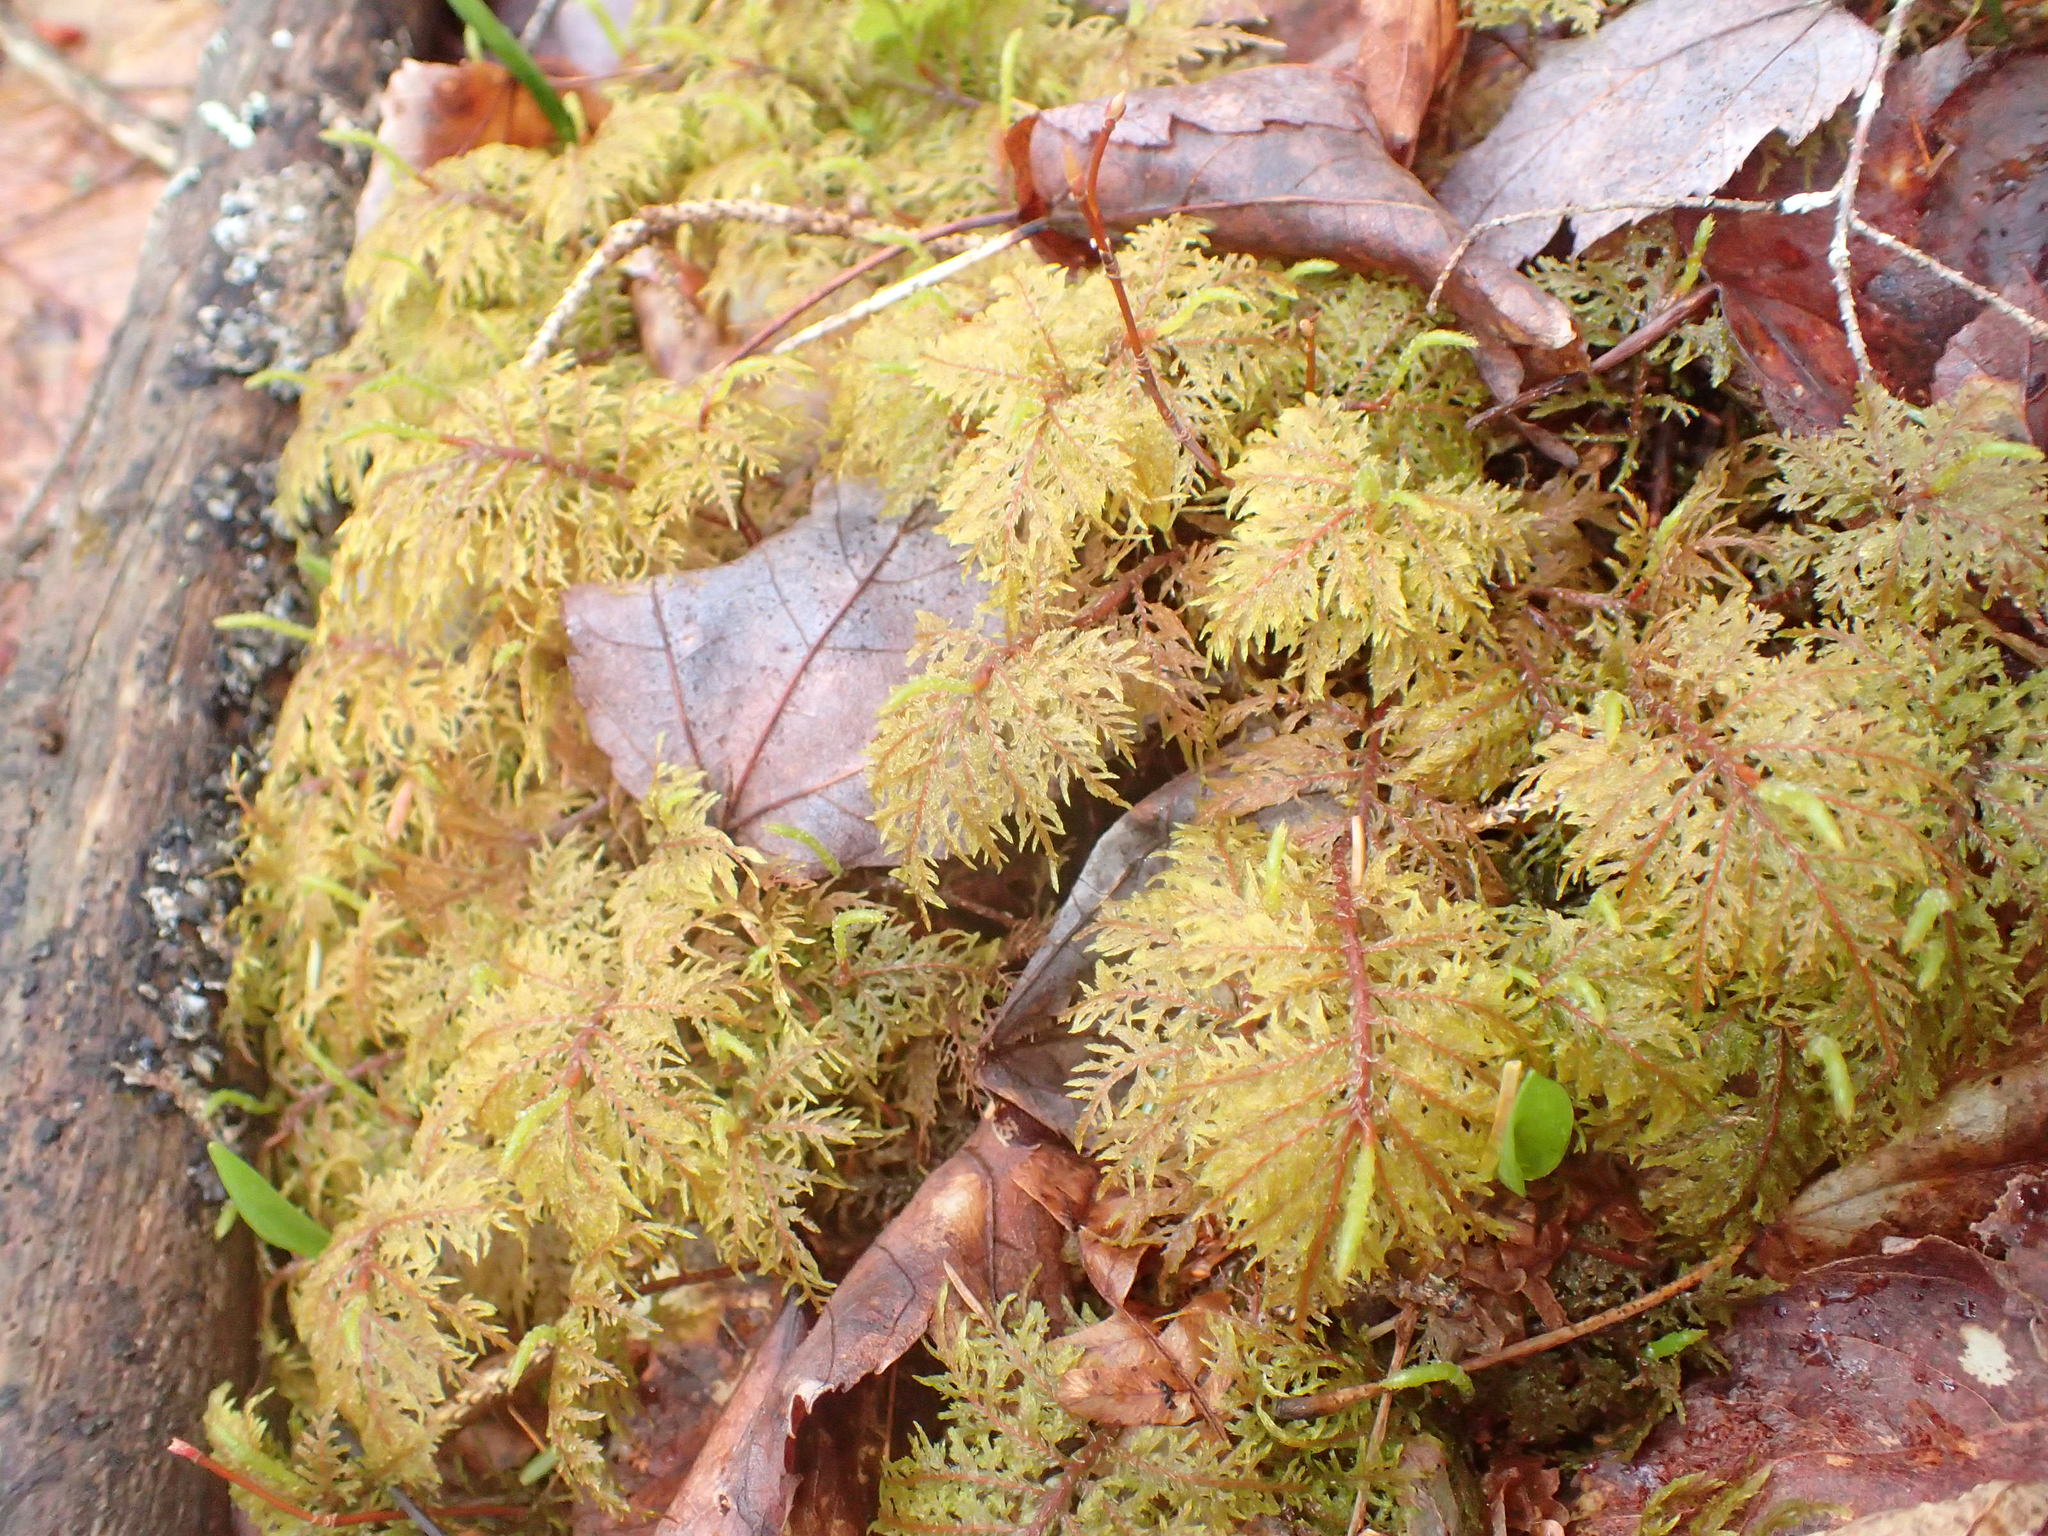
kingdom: Plantae
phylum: Bryophyta
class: Bryopsida
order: Hypnales
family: Hylocomiaceae
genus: Hylocomium
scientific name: Hylocomium splendens
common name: Stairstep moss
